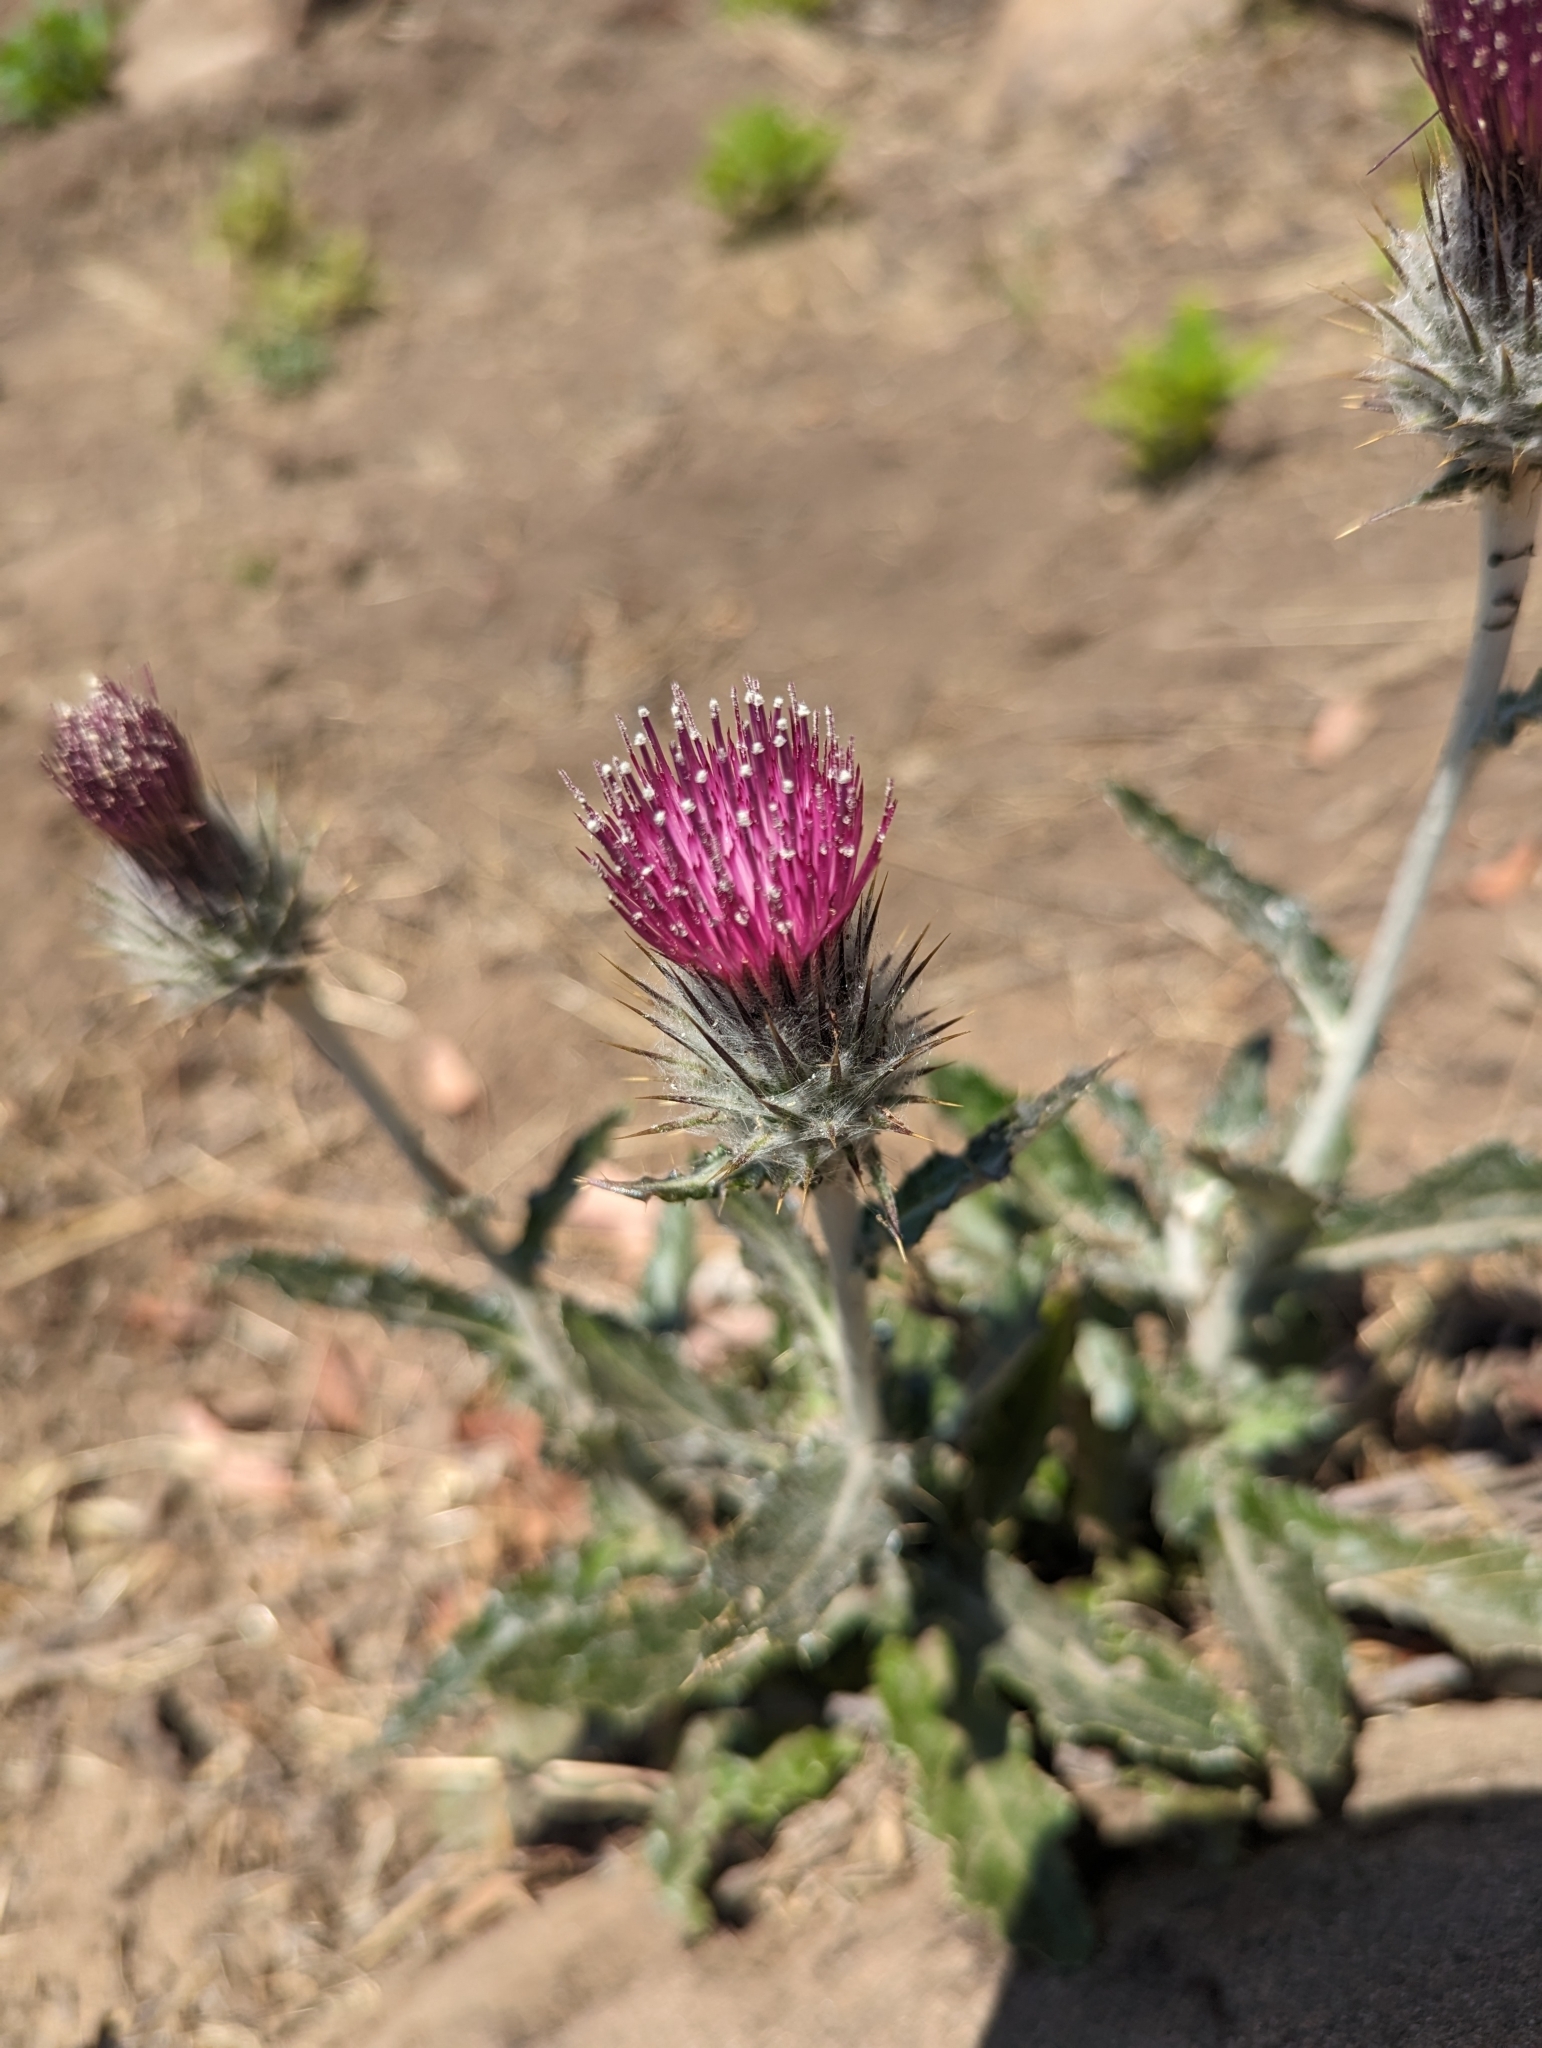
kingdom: Plantae
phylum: Tracheophyta
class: Magnoliopsida
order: Asterales
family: Asteraceae
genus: Cirsium
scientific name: Cirsium occidentale
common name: Western thistle
